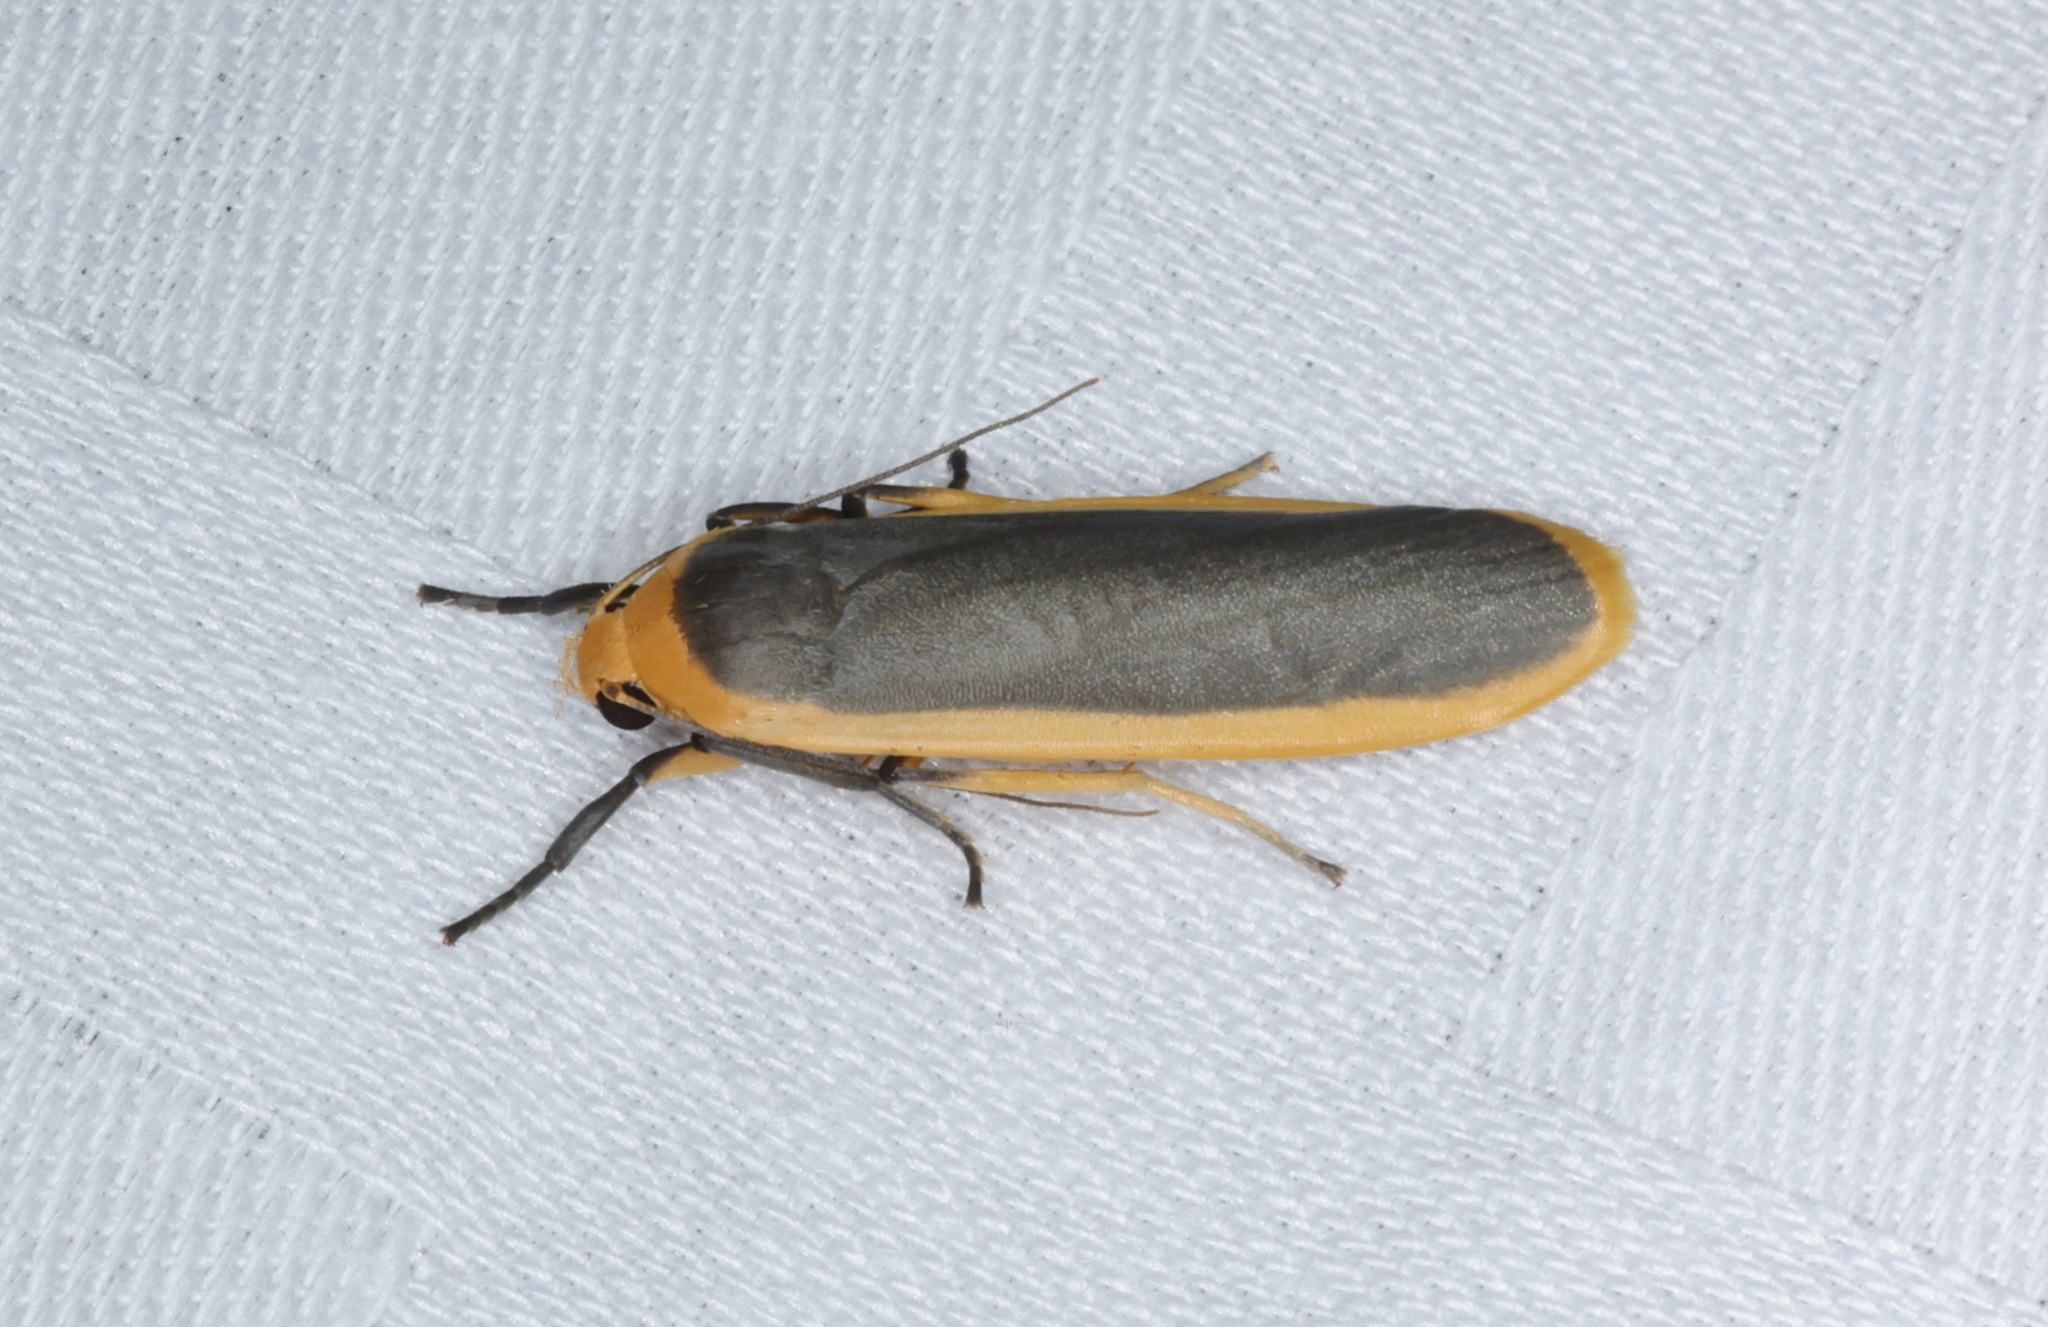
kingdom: Animalia
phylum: Arthropoda
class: Insecta
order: Lepidoptera
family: Erebidae
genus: Brunia
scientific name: Brunia antica
